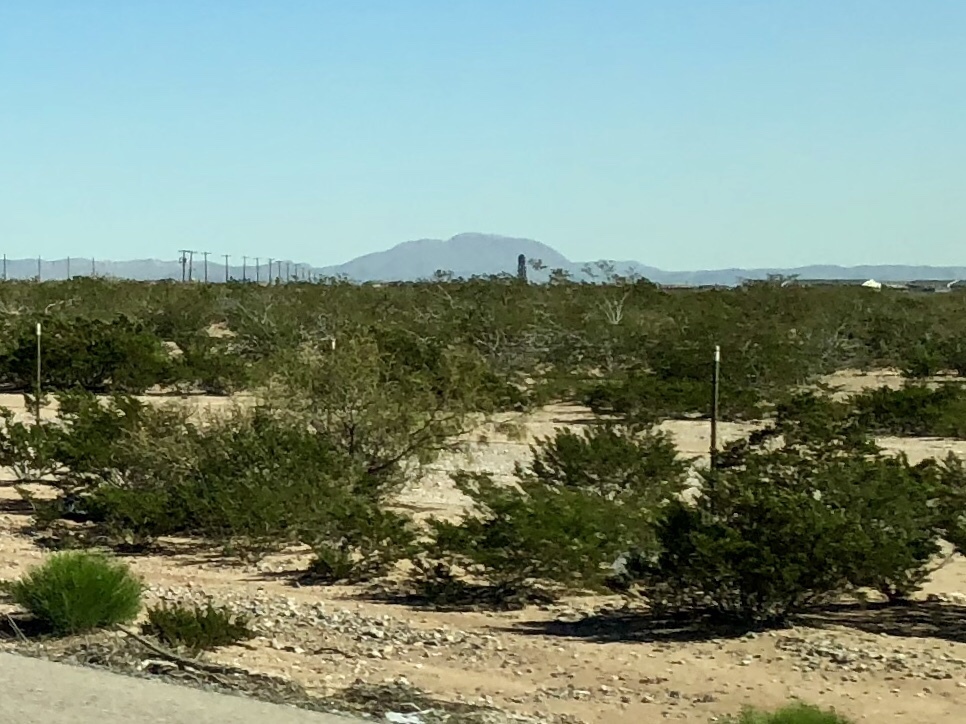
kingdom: Plantae
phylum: Tracheophyta
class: Magnoliopsida
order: Zygophyllales
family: Zygophyllaceae
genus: Larrea
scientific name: Larrea tridentata
